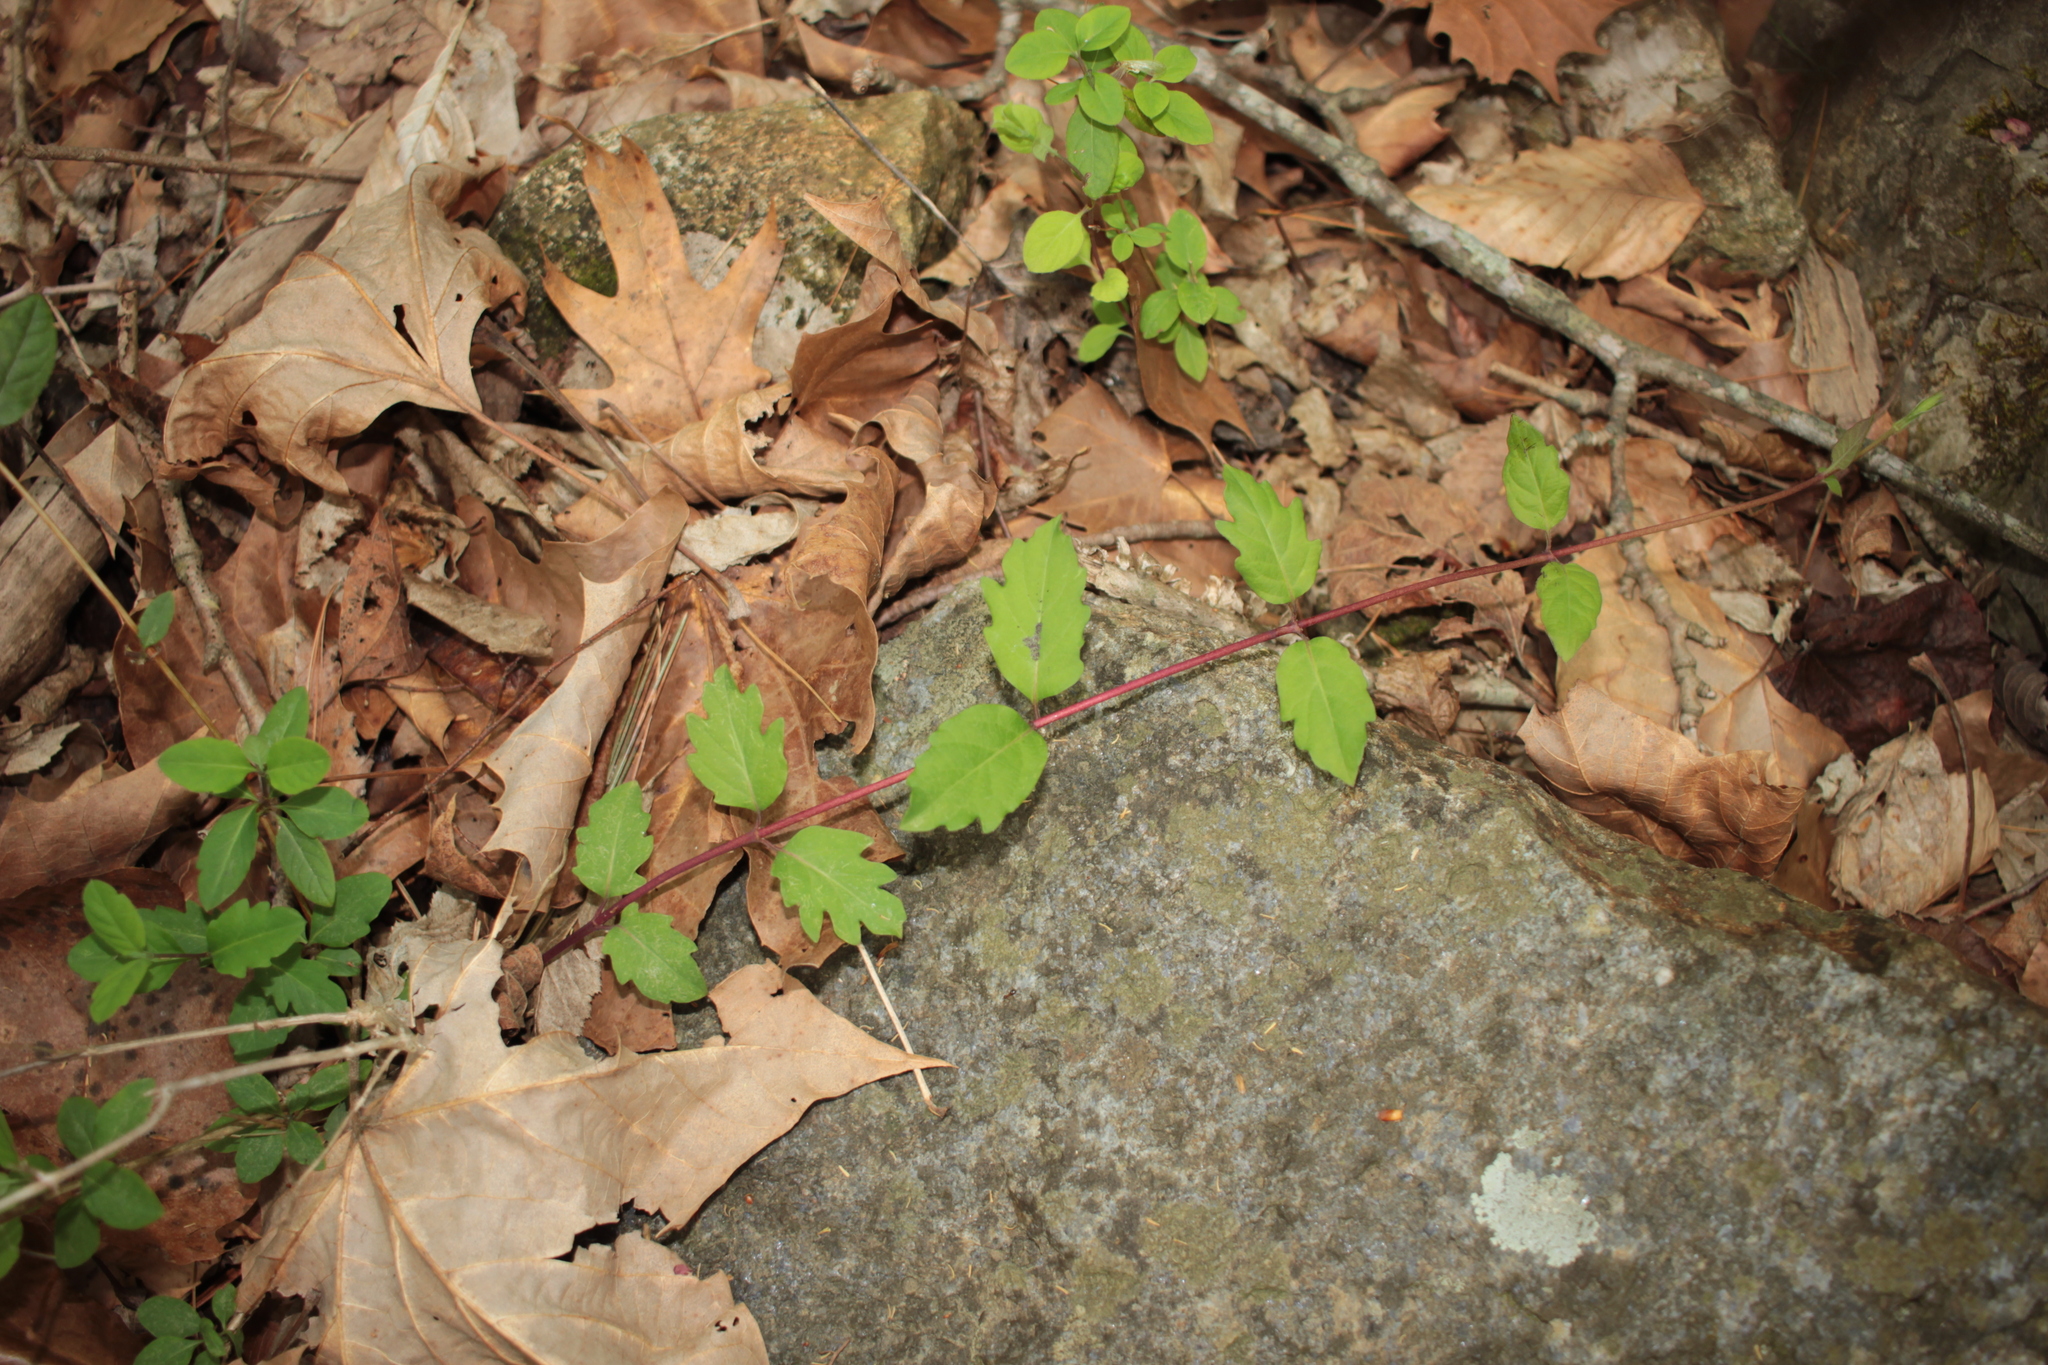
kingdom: Plantae
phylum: Tracheophyta
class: Magnoliopsida
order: Dipsacales
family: Caprifoliaceae
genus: Lonicera
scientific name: Lonicera japonica
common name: Japanese honeysuckle
